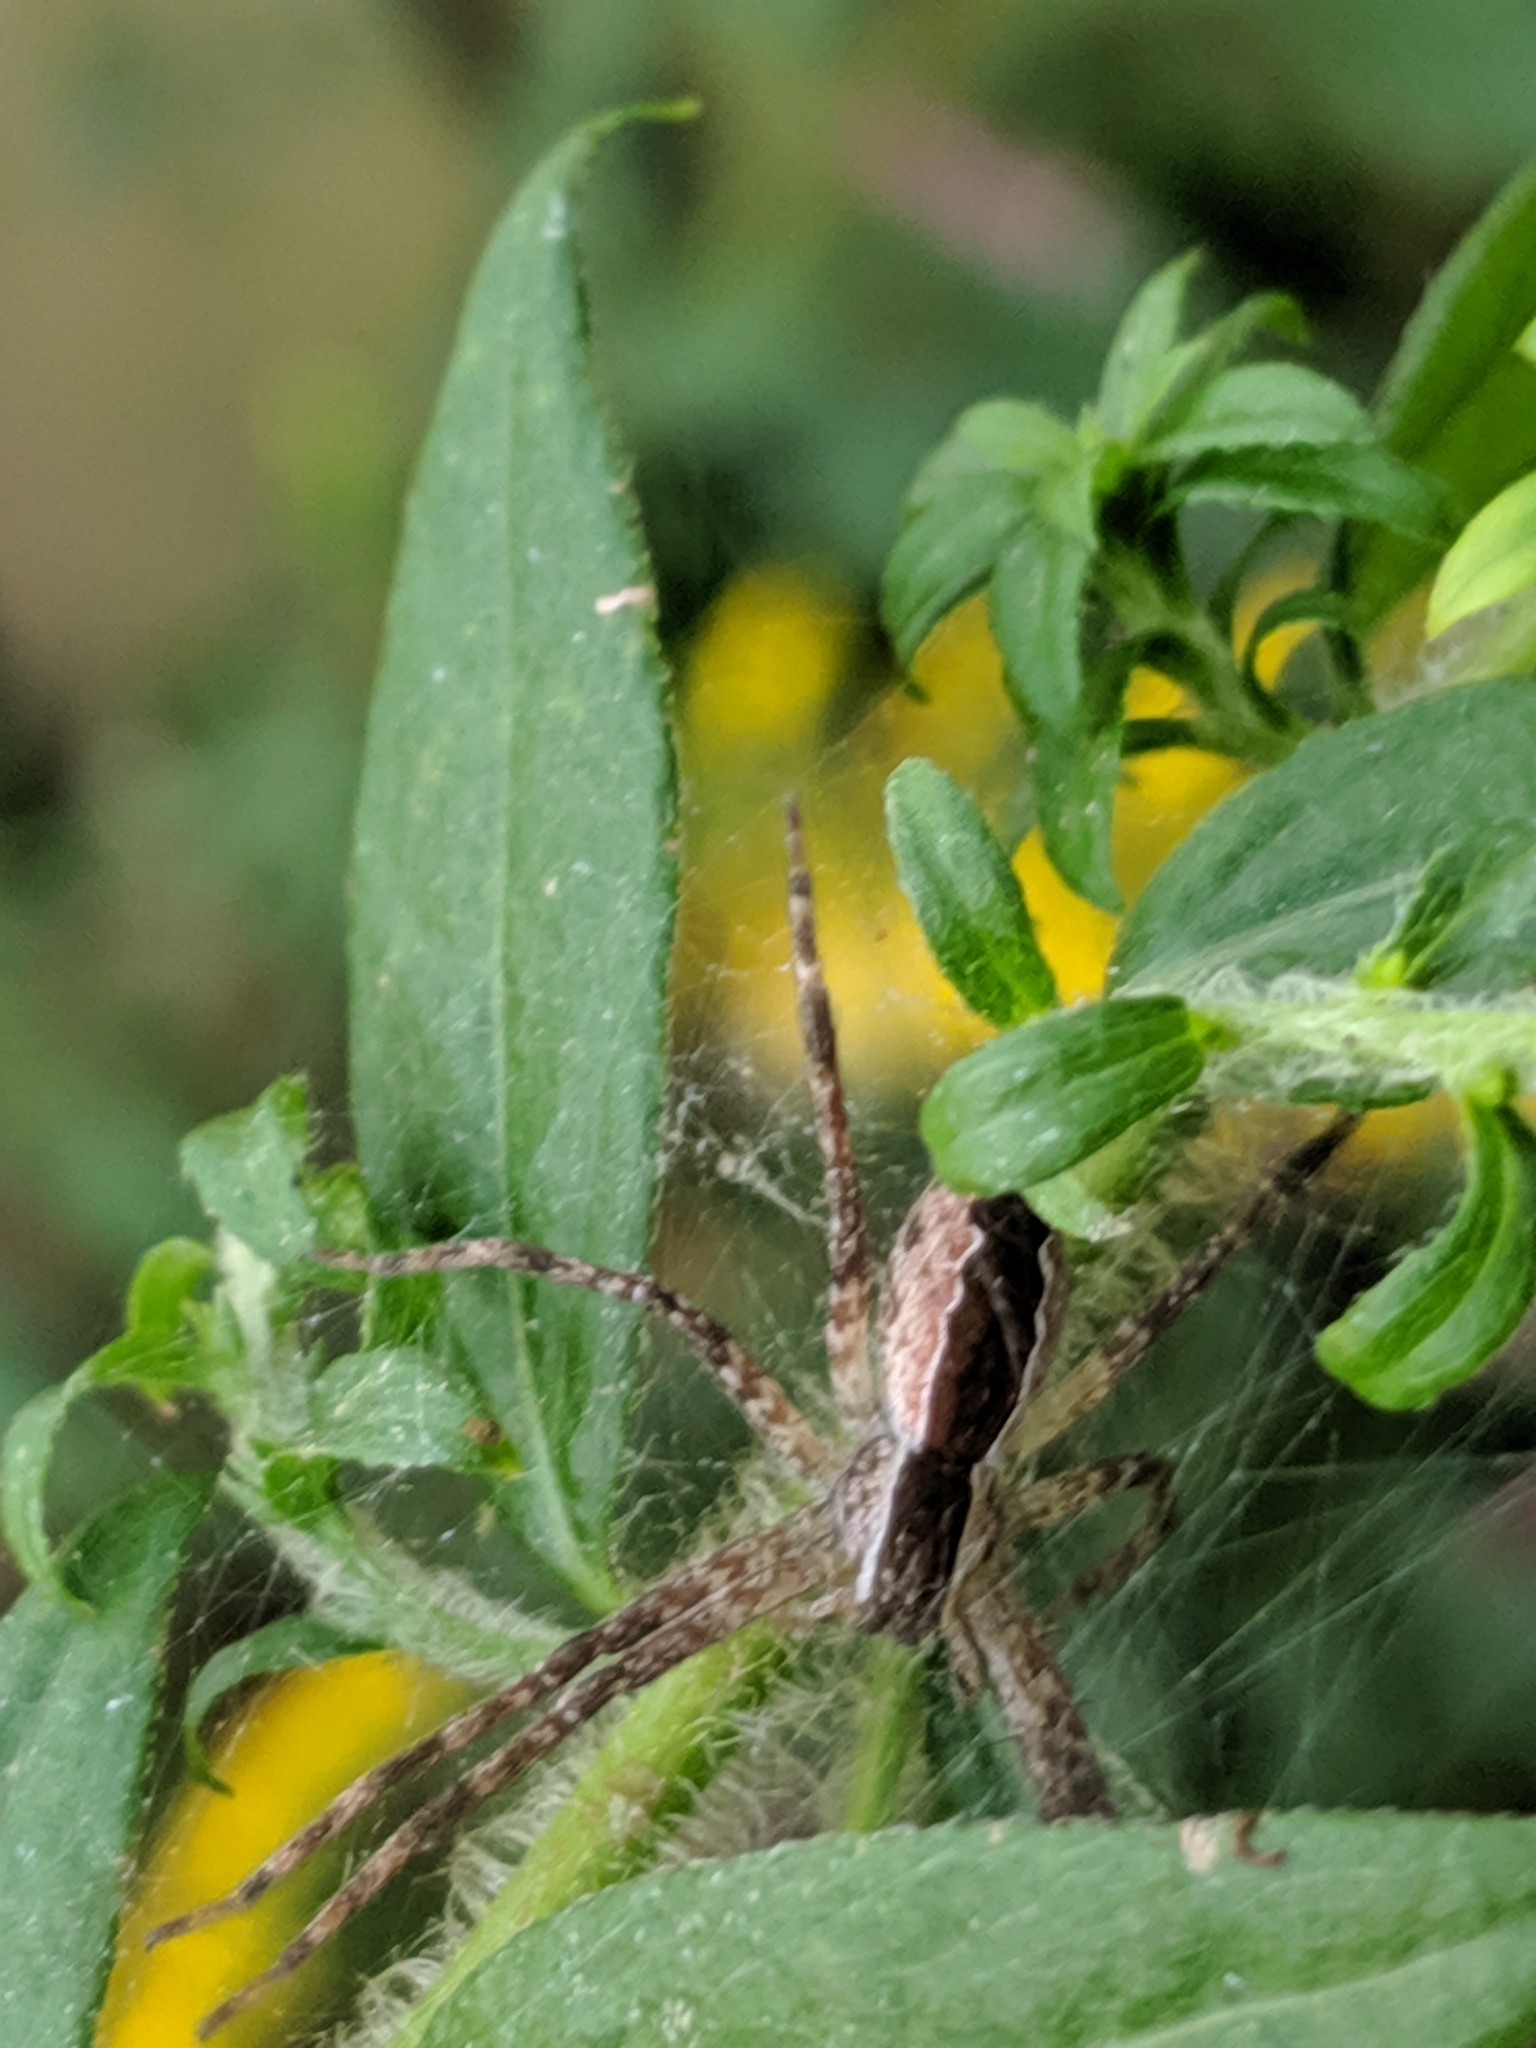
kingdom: Animalia
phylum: Arthropoda
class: Arachnida
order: Araneae
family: Pisauridae
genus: Pisaurina
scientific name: Pisaurina mira
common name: American nursery web spider
